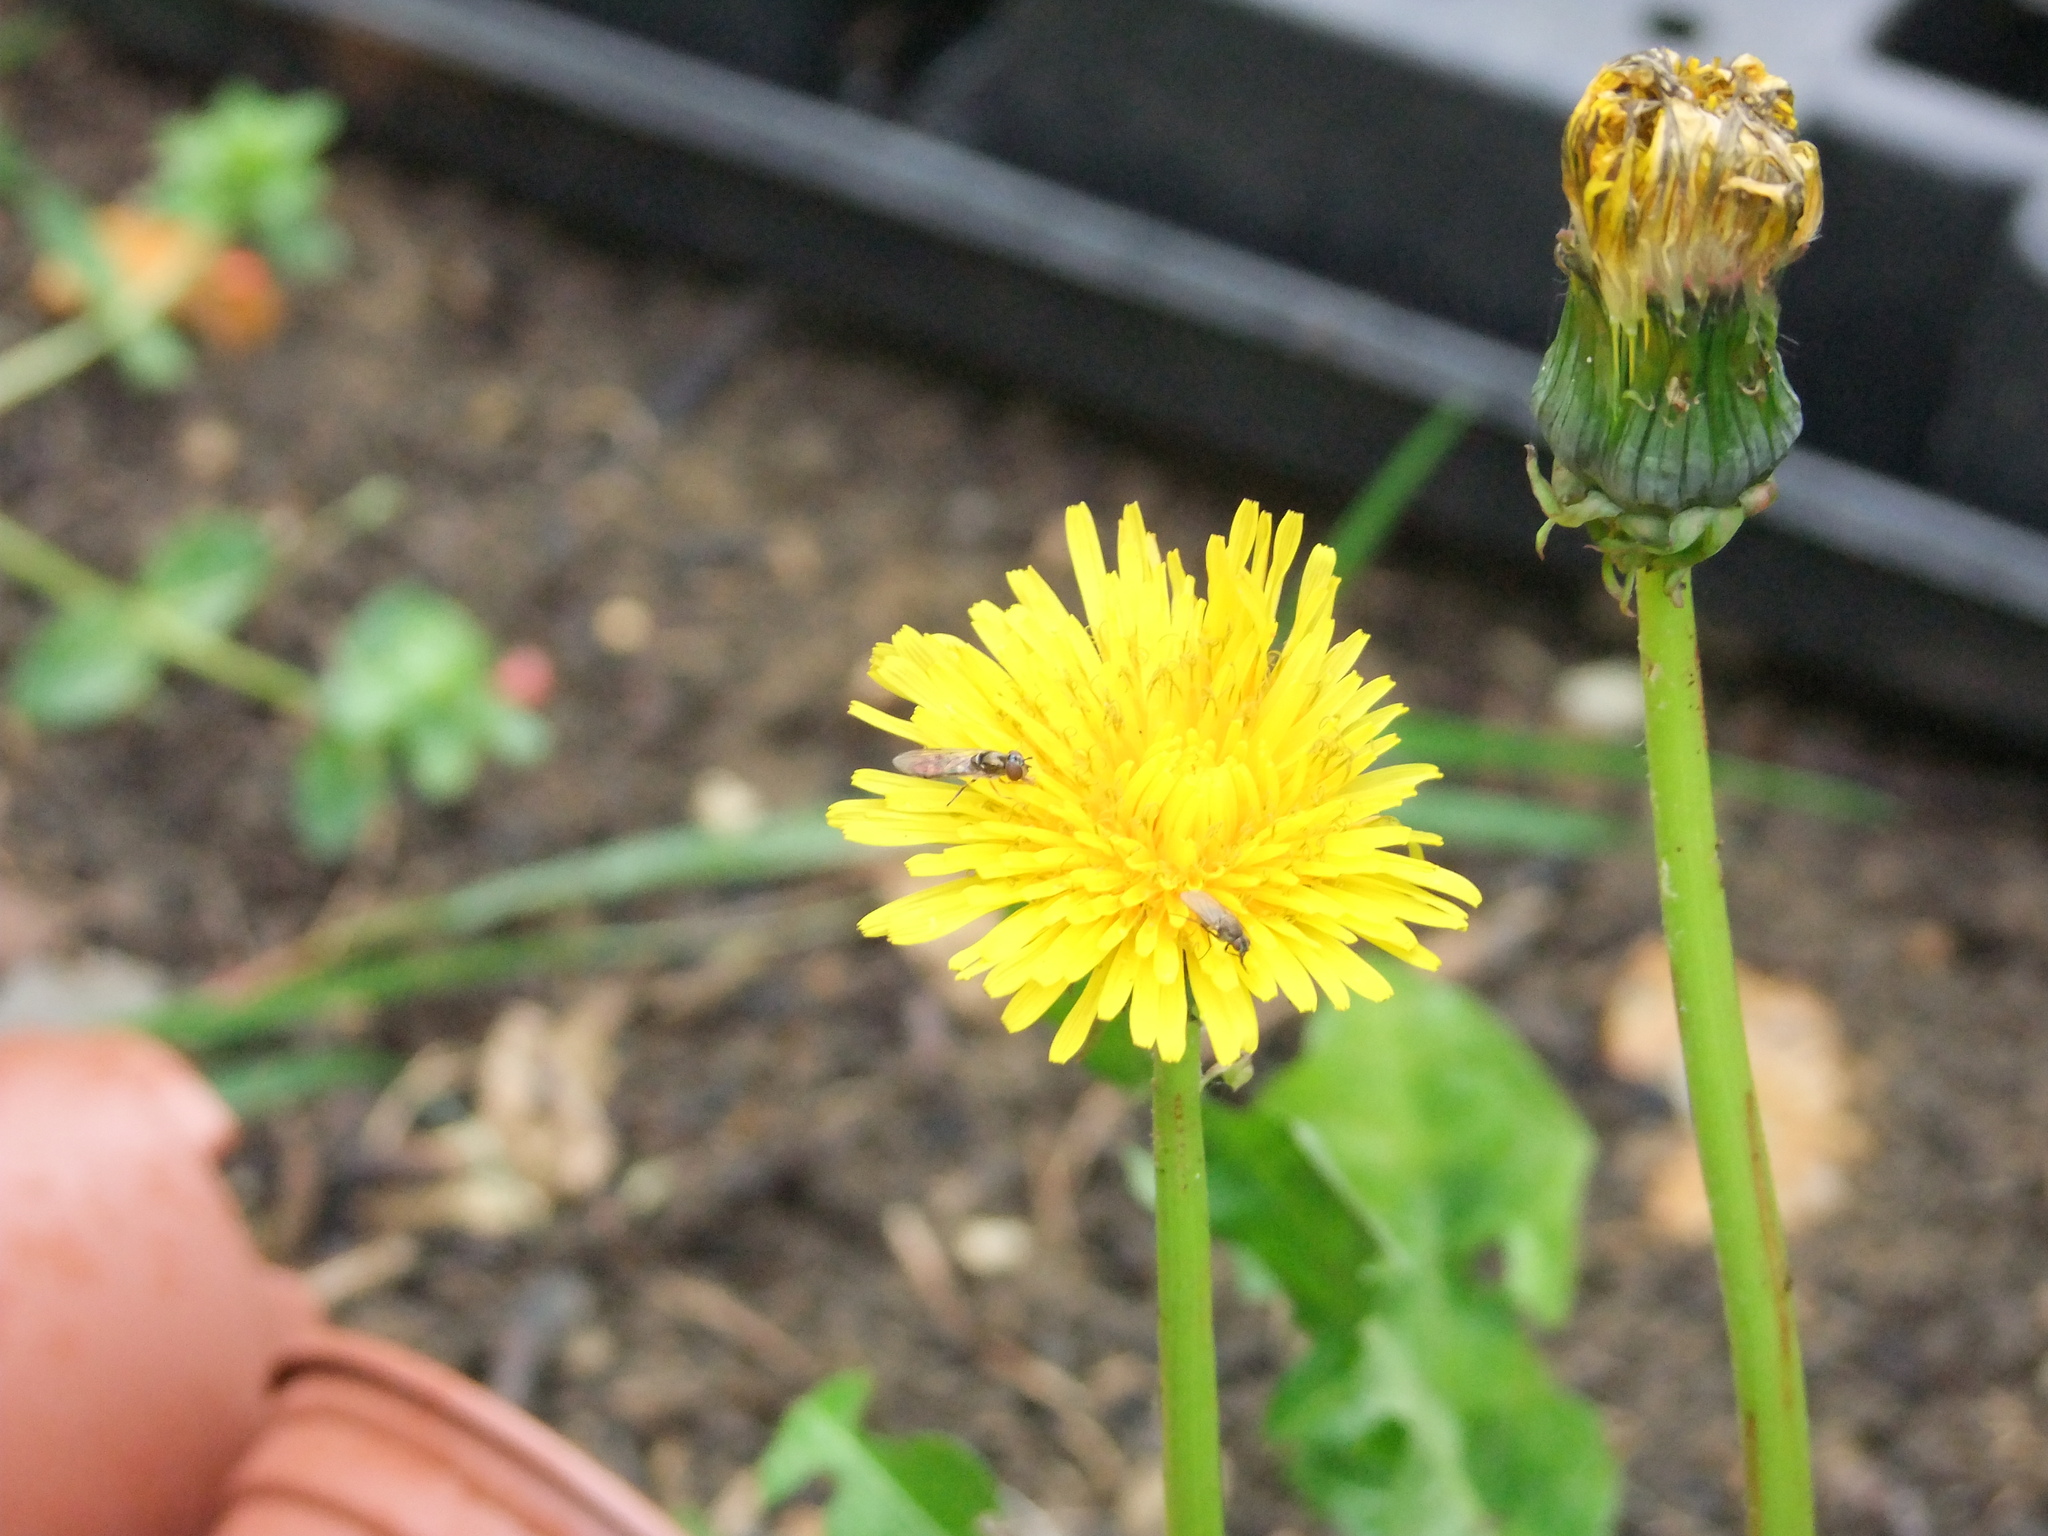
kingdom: Animalia
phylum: Arthropoda
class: Insecta
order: Diptera
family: Syrphidae
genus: Platycheirus
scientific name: Platycheirus
